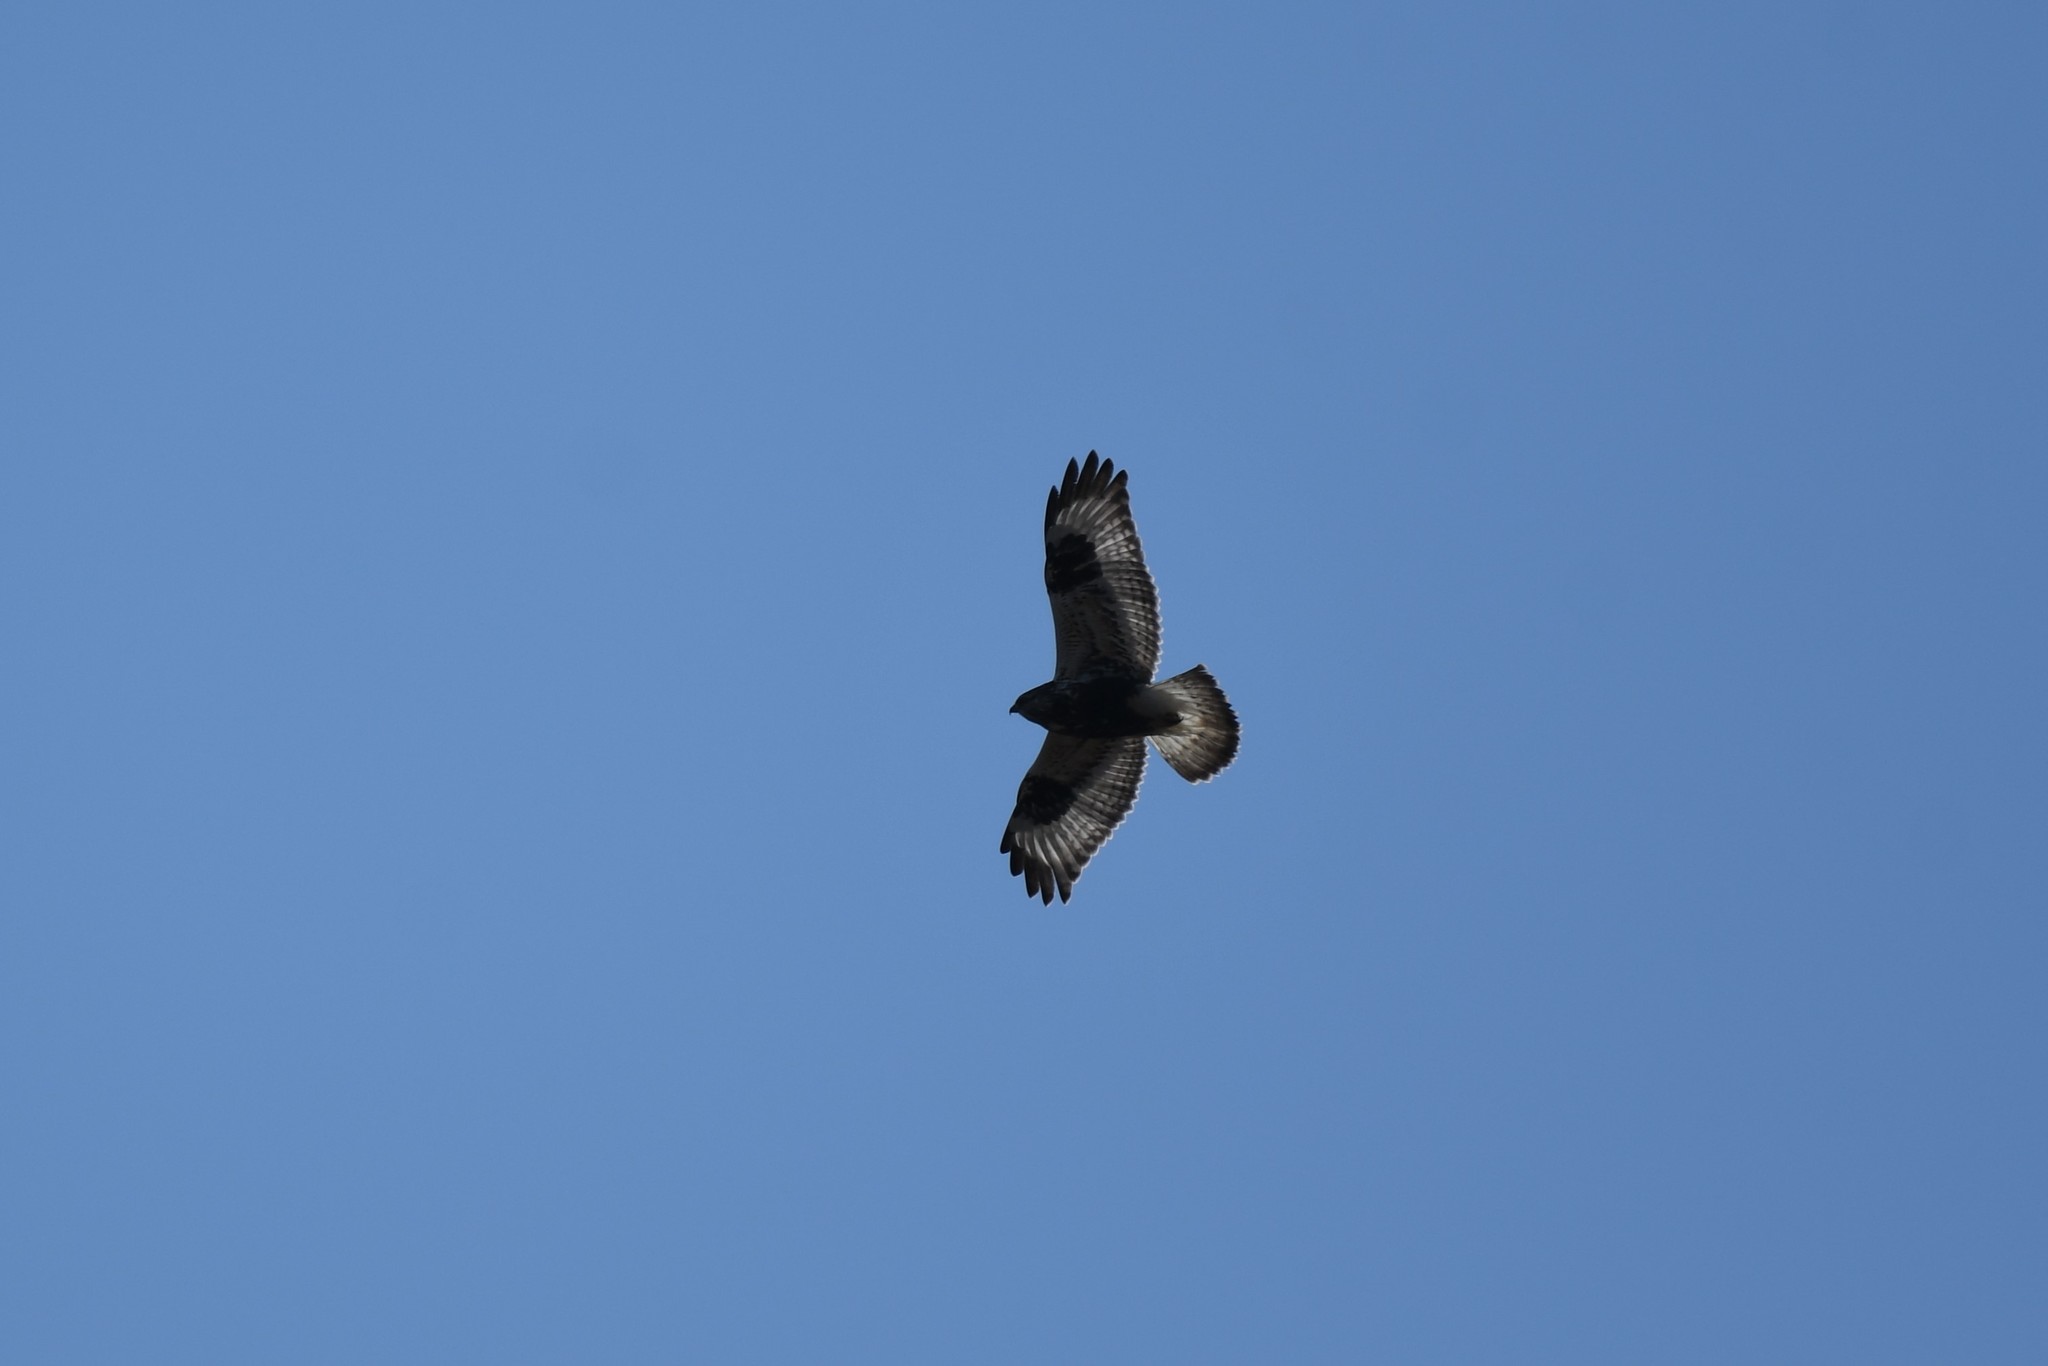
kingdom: Animalia
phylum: Chordata
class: Aves
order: Accipitriformes
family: Accipitridae
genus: Buteo
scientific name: Buteo lagopus
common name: Rough-legged buzzard
